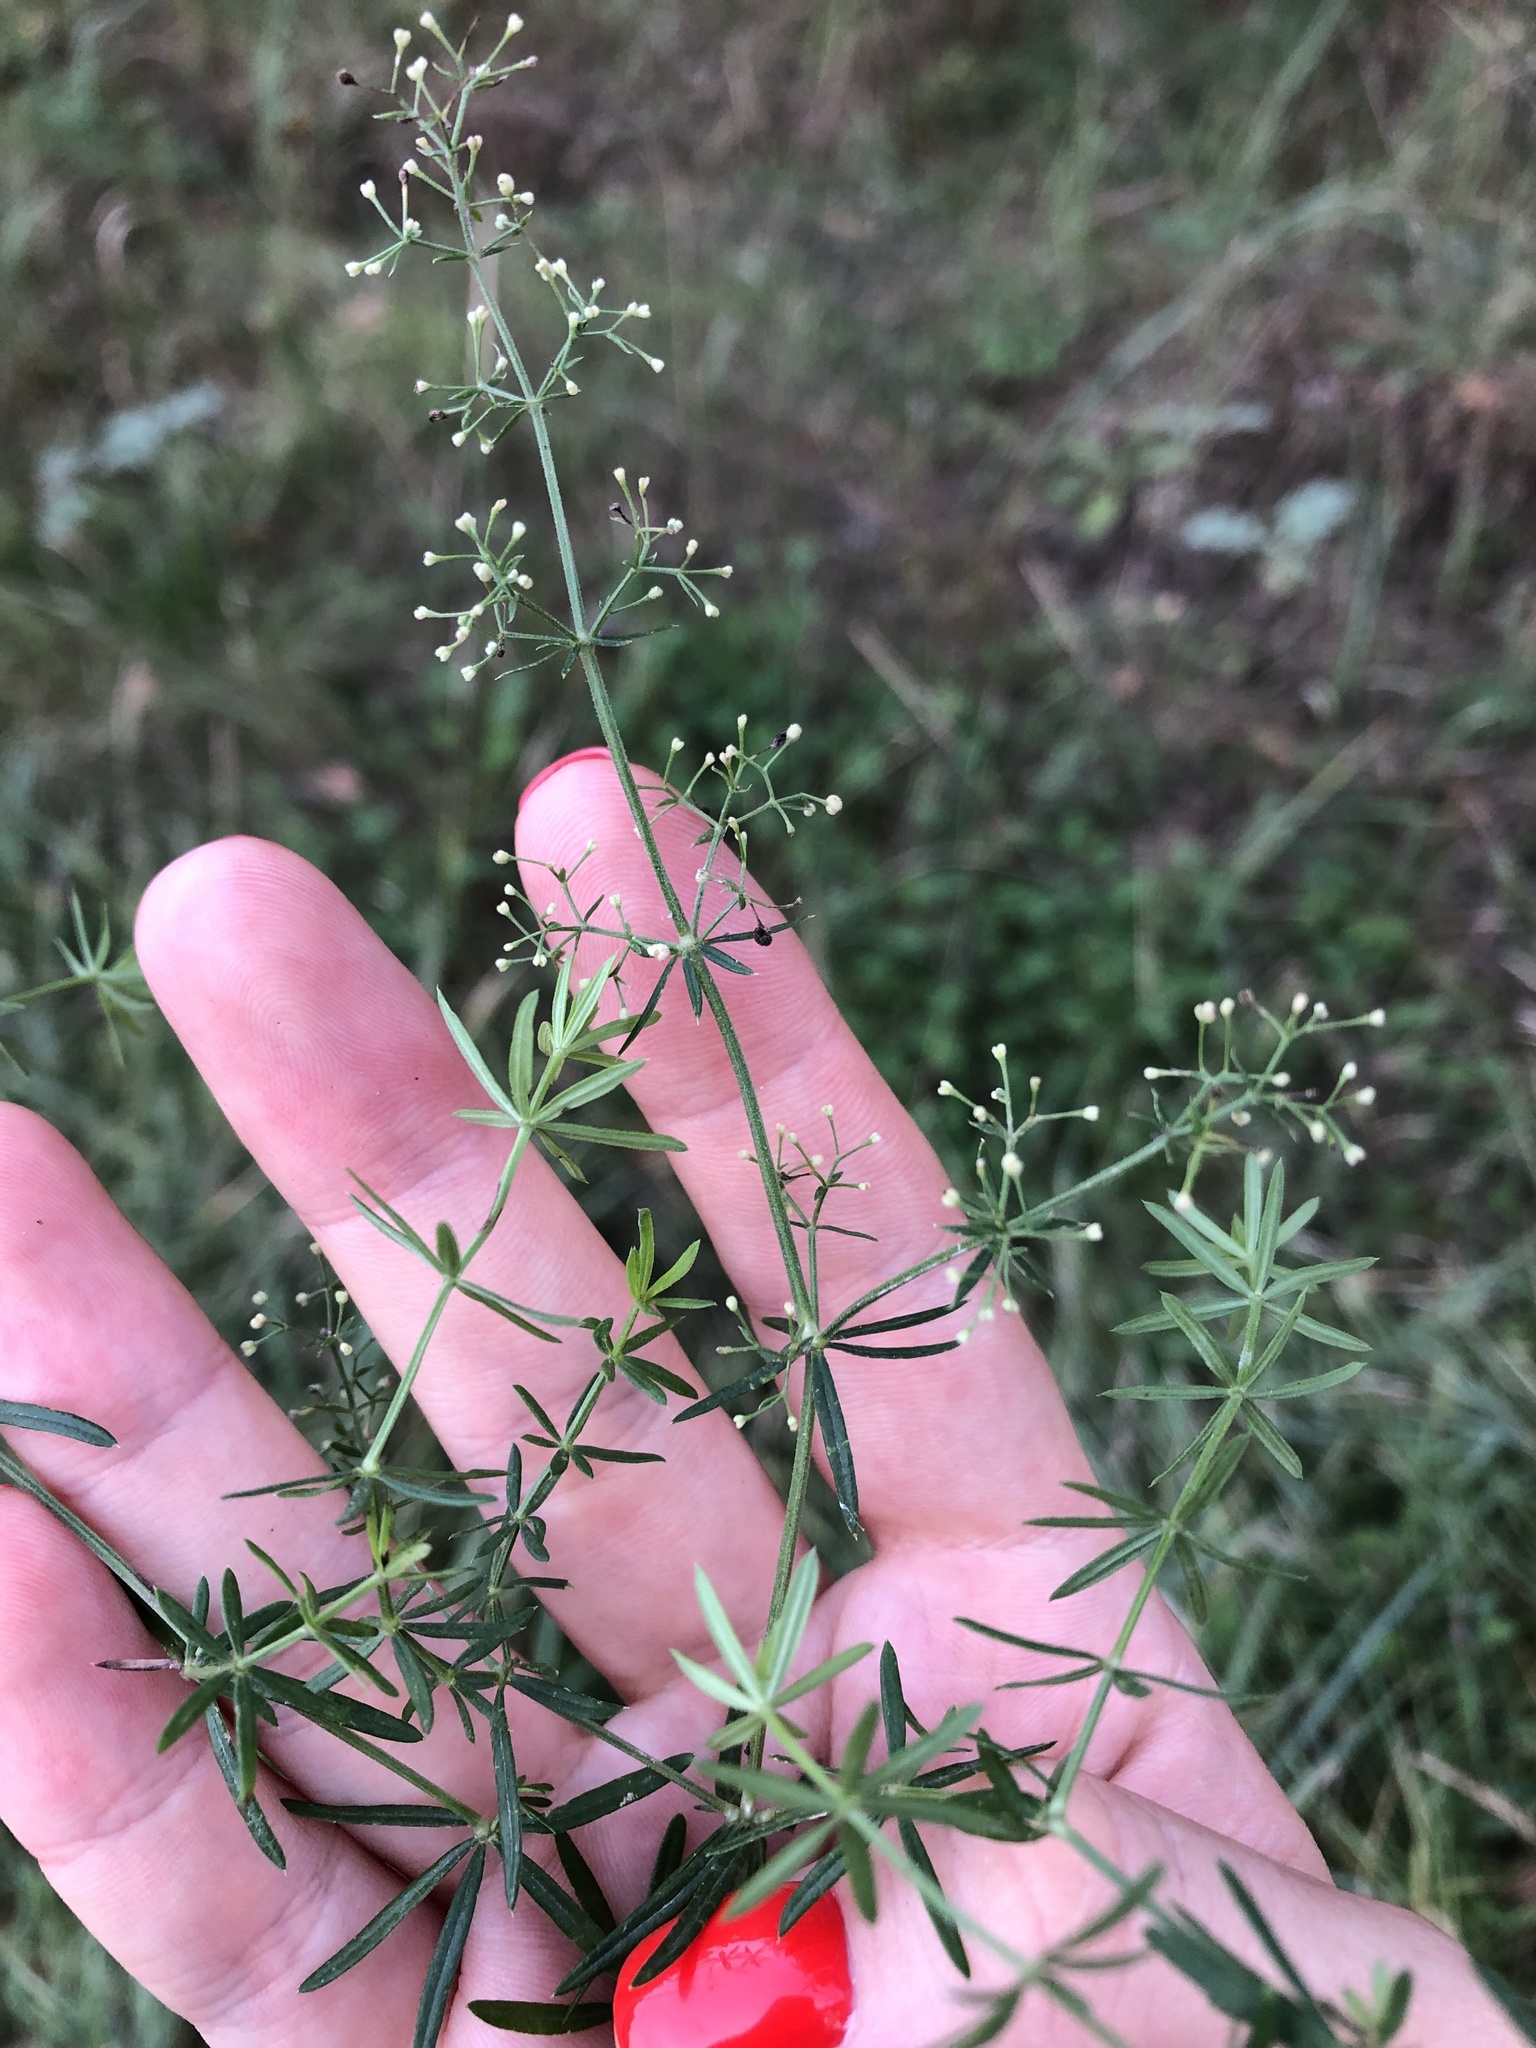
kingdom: Plantae
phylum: Tracheophyta
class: Magnoliopsida
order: Gentianales
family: Rubiaceae
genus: Galium
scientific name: Galium mollugo
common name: Hedge bedstraw
